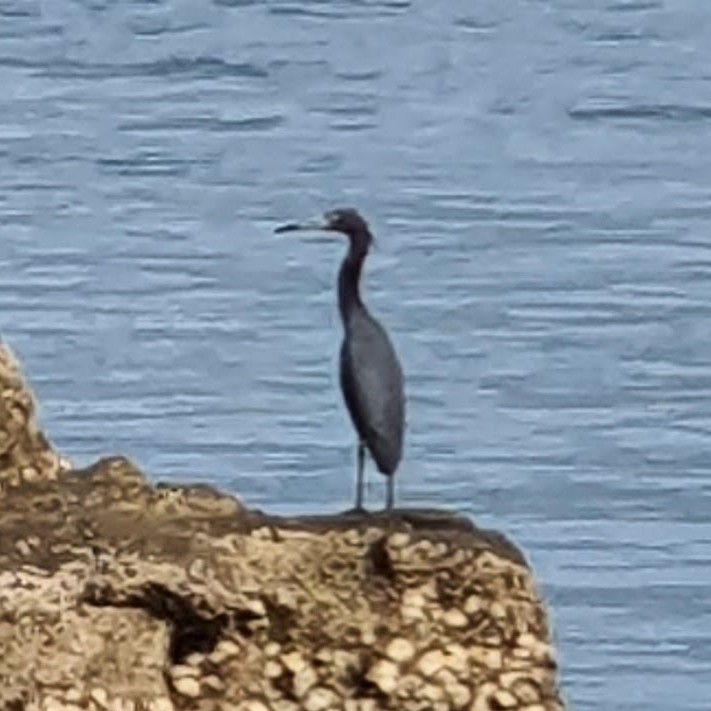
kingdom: Animalia
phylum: Chordata
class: Aves
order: Pelecaniformes
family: Ardeidae
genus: Egretta
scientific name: Egretta caerulea
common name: Little blue heron
